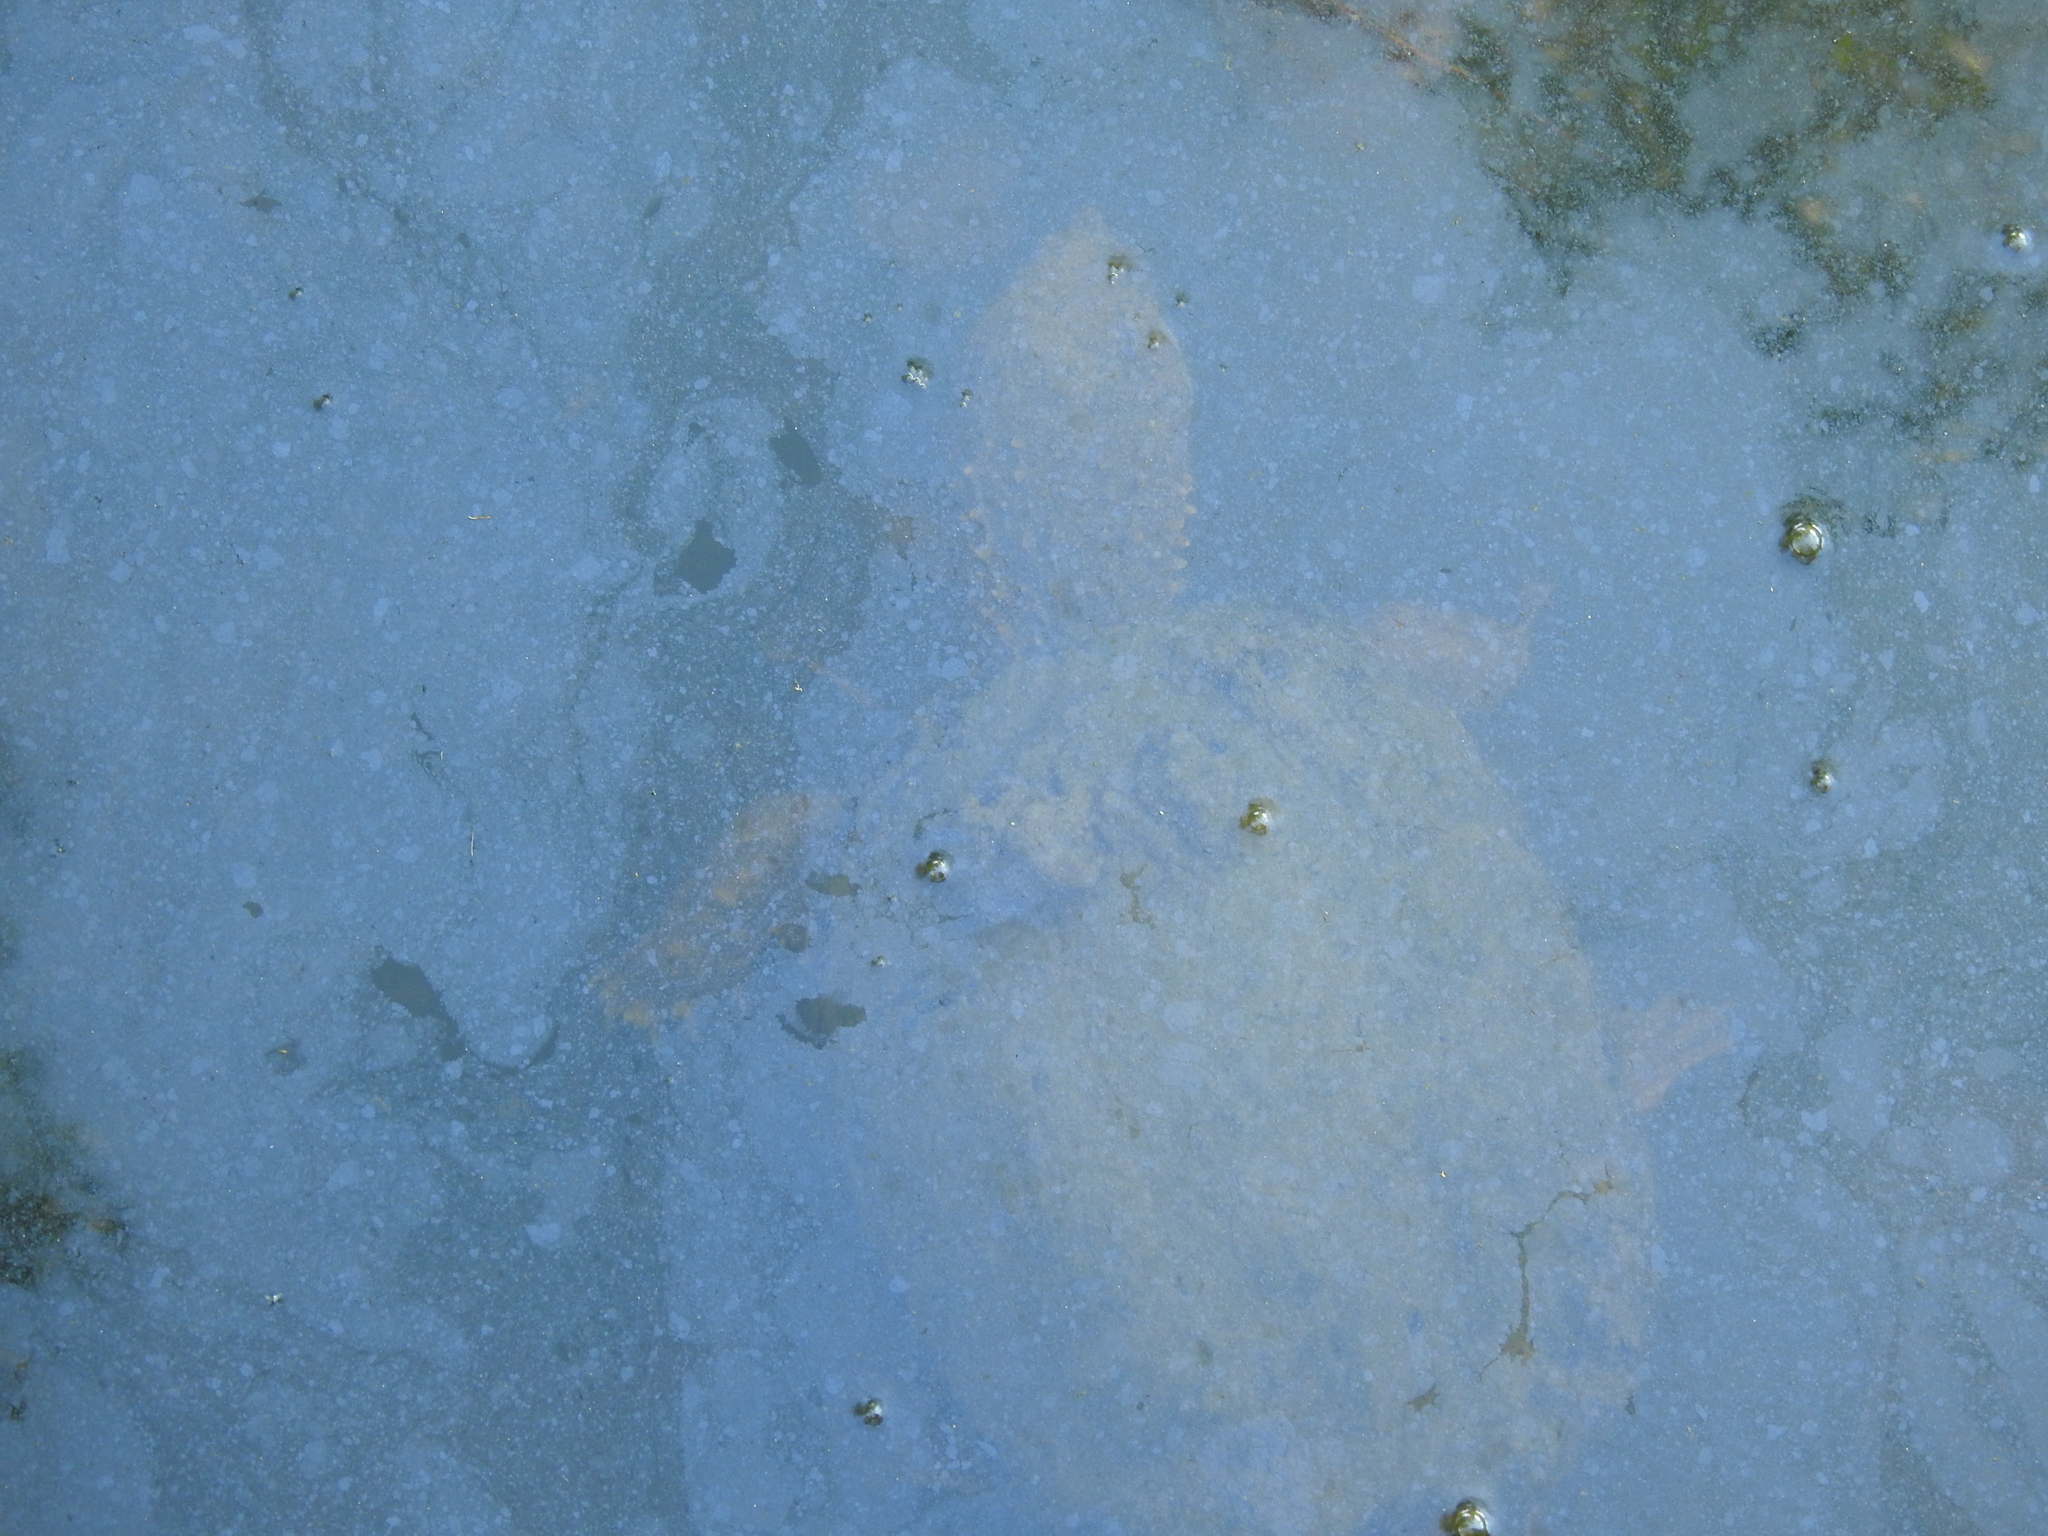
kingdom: Animalia
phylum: Chordata
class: Testudines
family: Chelydridae
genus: Chelydra
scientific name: Chelydra serpentina
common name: Common snapping turtle
